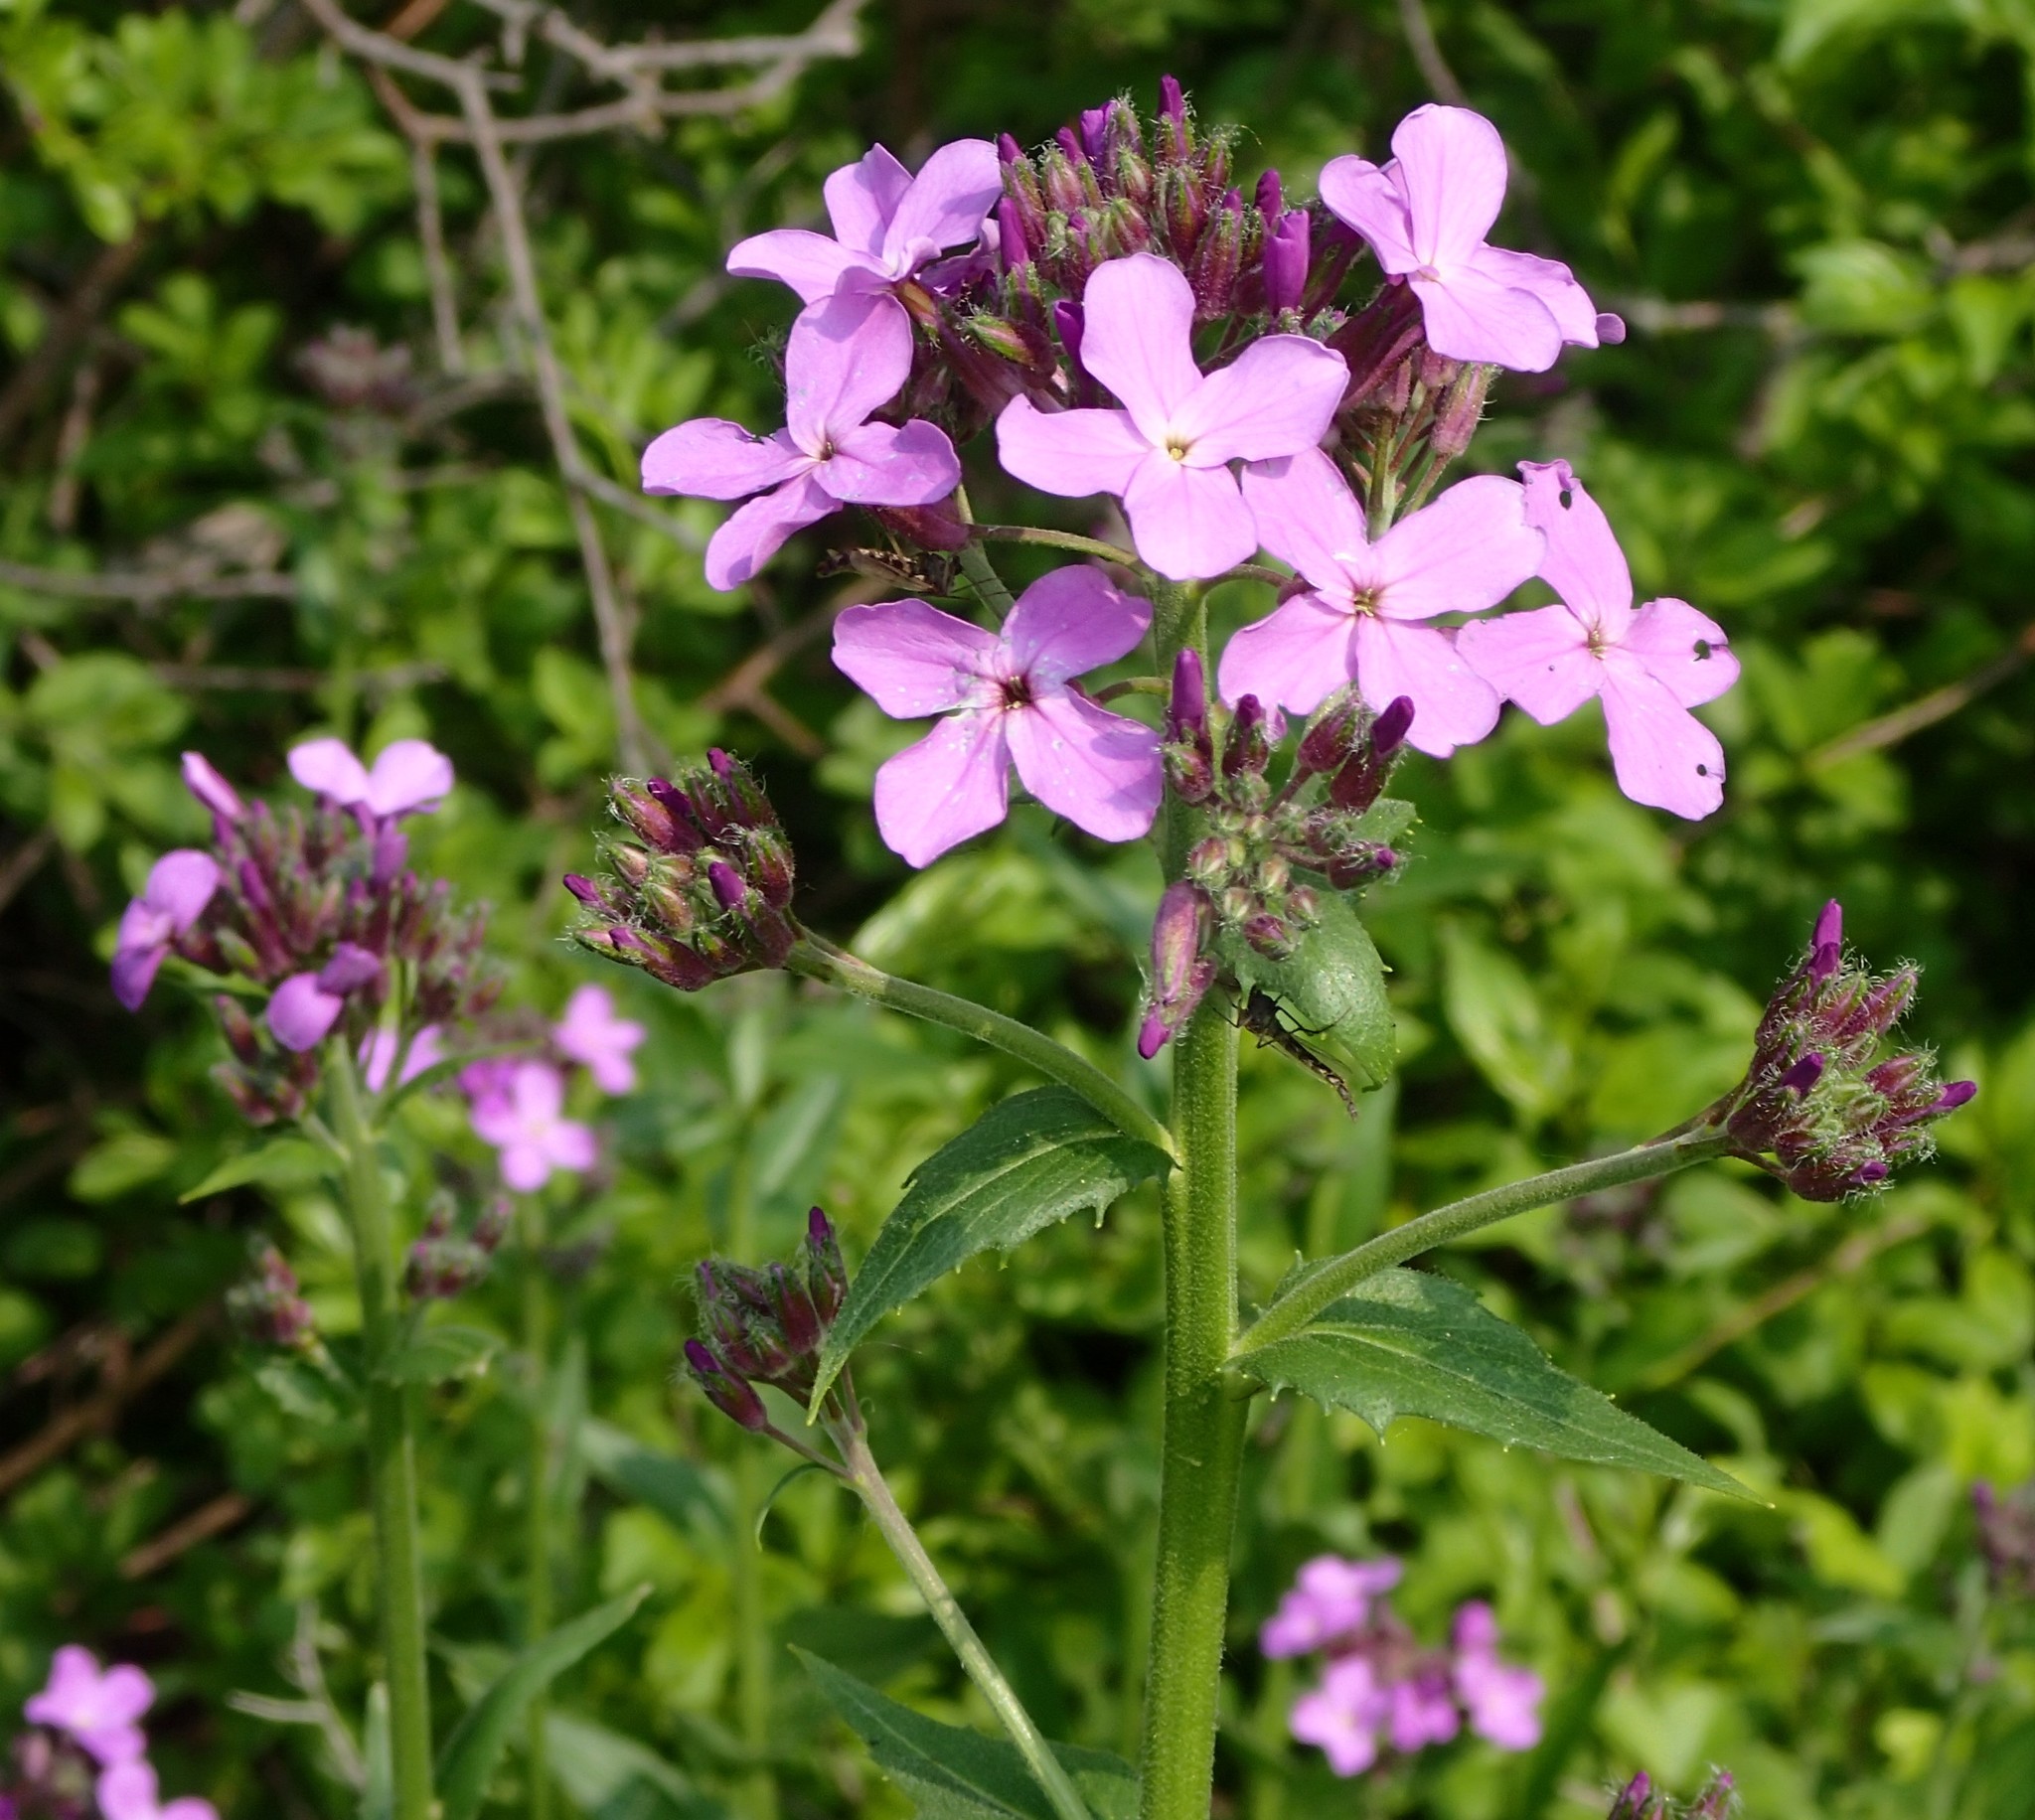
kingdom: Plantae
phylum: Tracheophyta
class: Magnoliopsida
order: Brassicales
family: Brassicaceae
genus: Hesperis
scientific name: Hesperis matronalis
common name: Dame's-violet
